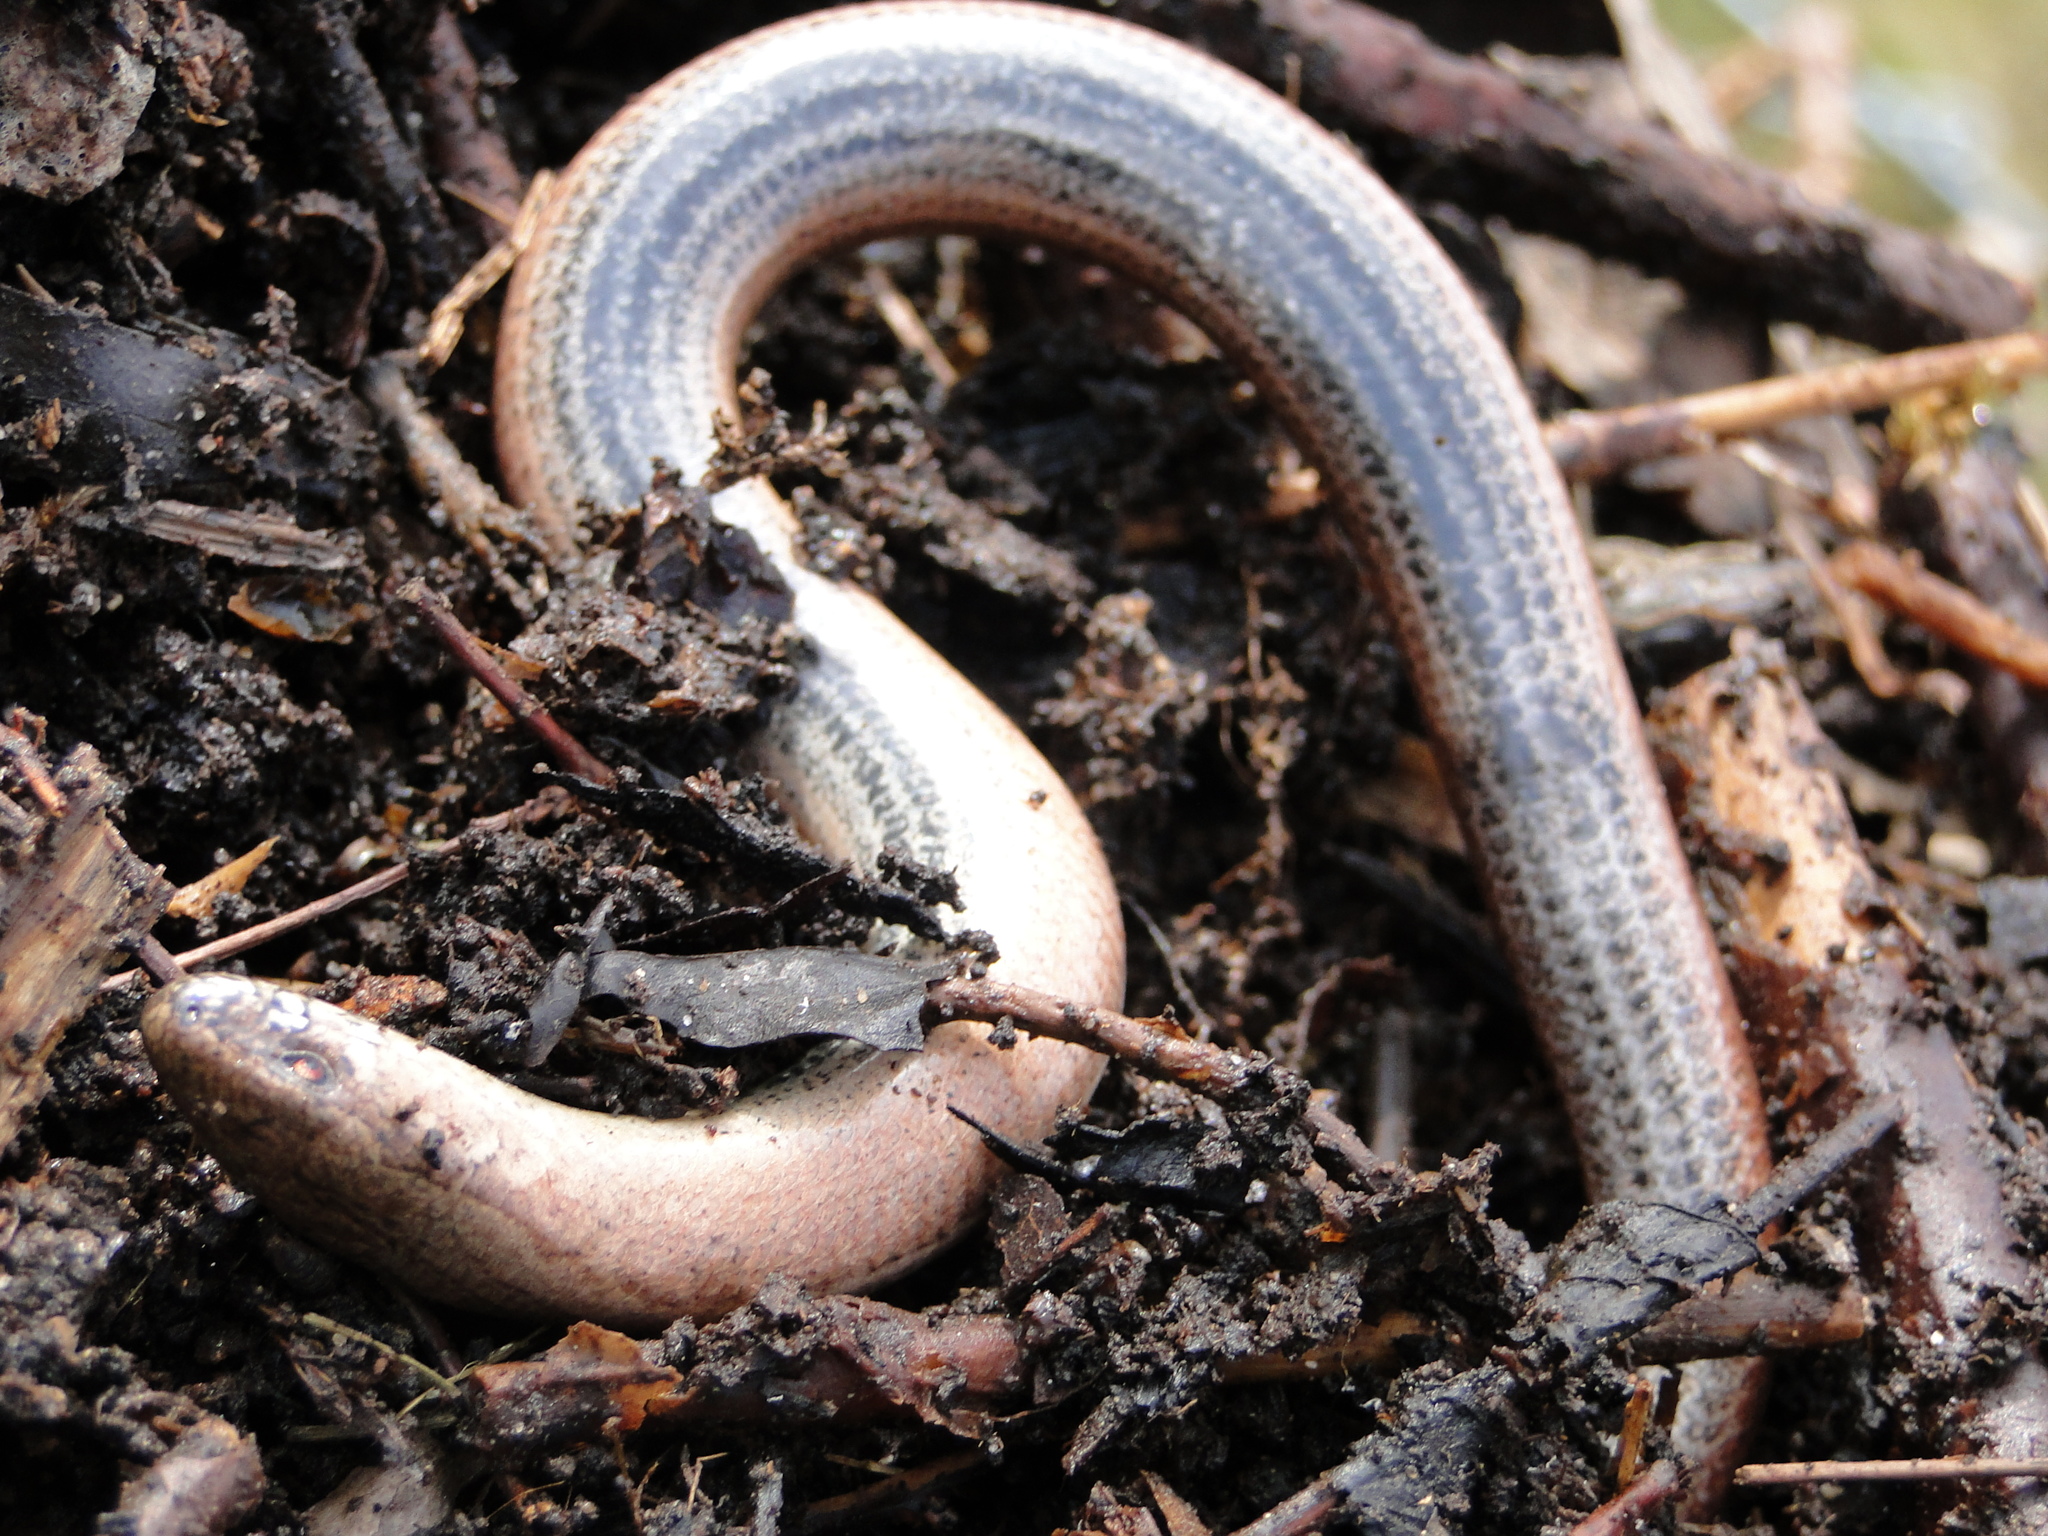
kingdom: Animalia
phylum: Chordata
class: Squamata
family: Anguidae
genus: Anguis
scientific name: Anguis fragilis
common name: Slow worm
